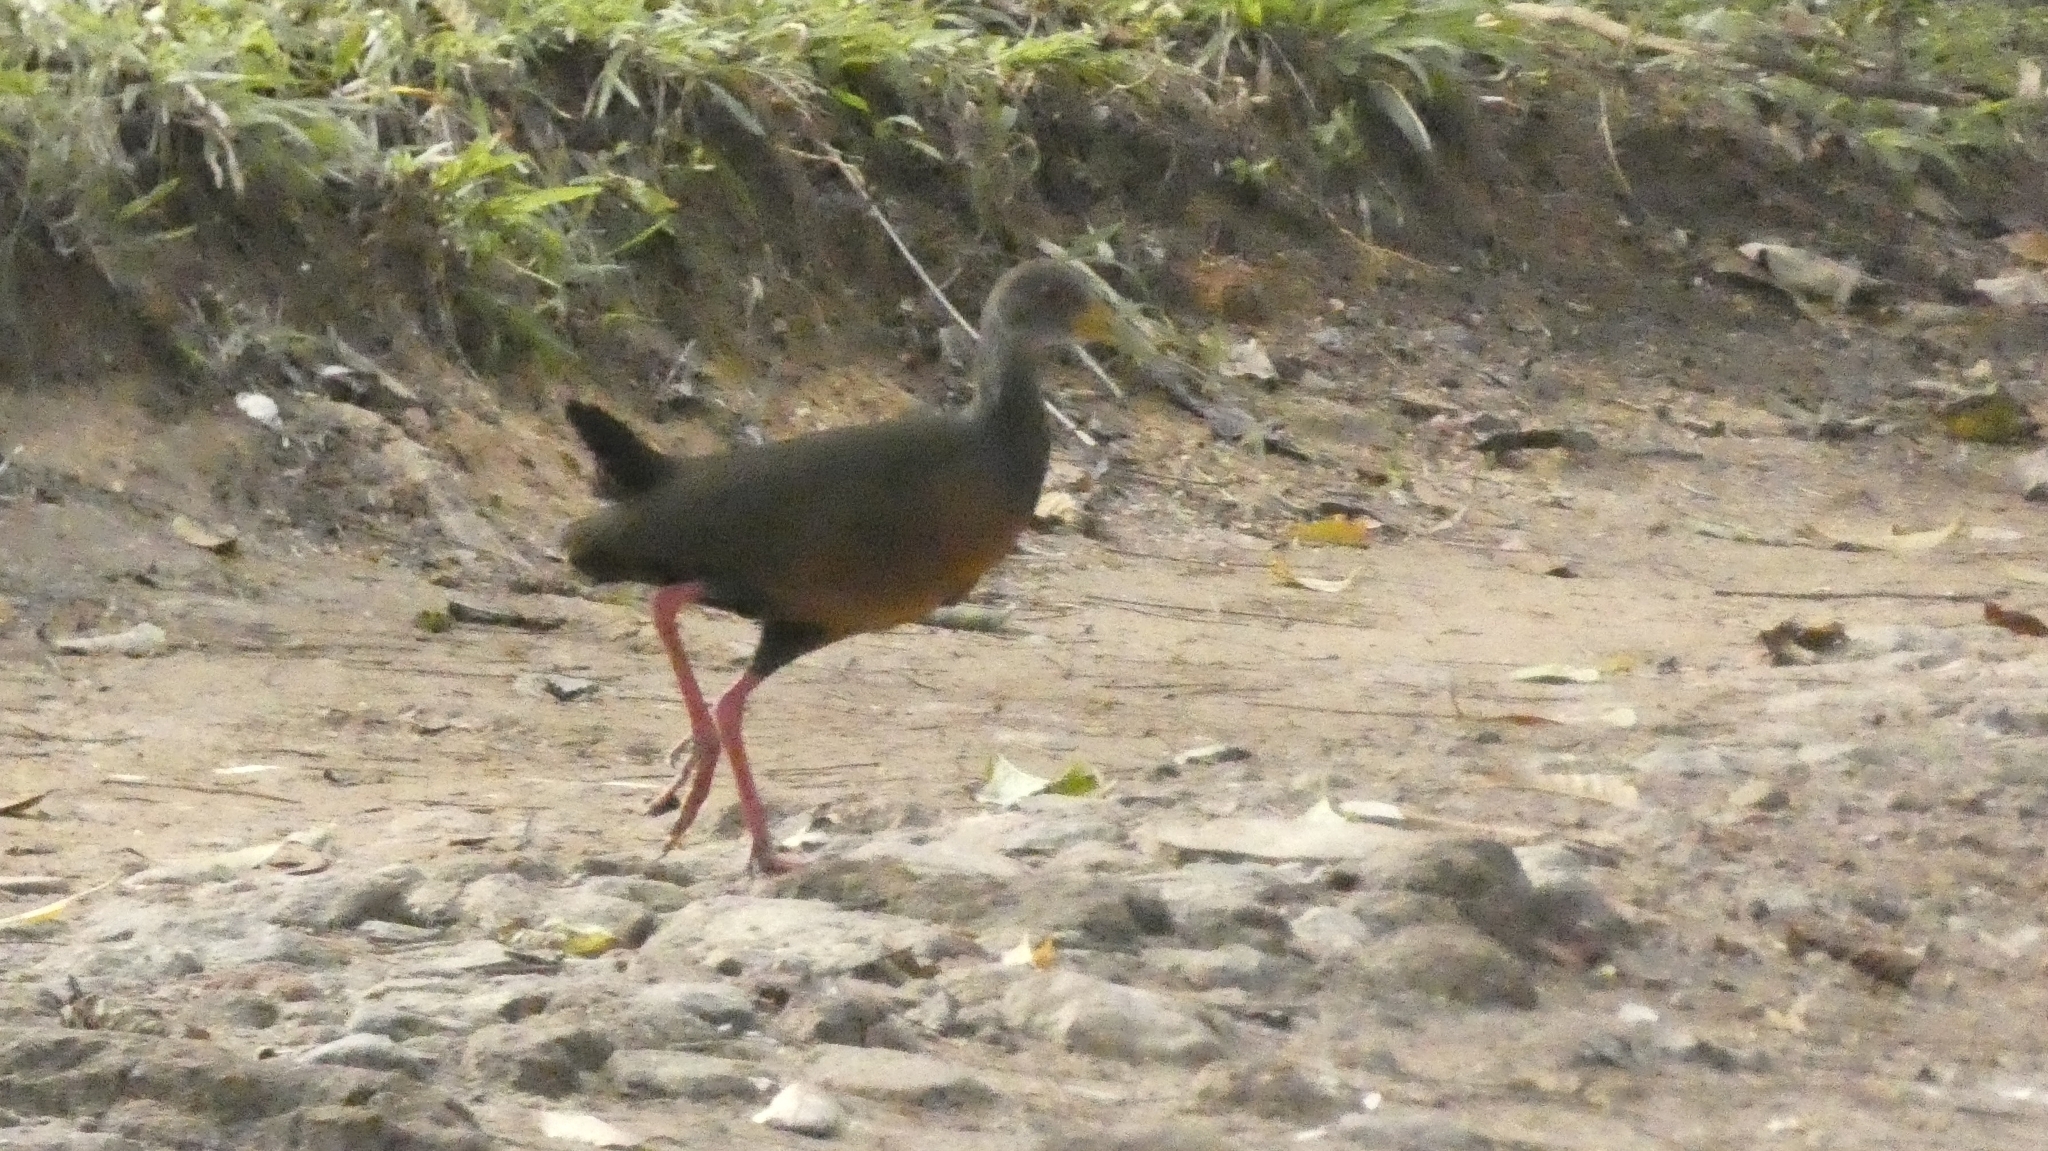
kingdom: Animalia
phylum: Chordata
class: Aves
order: Gruiformes
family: Rallidae
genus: Aramides
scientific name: Aramides cajanea
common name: Gray-necked wood-rail
